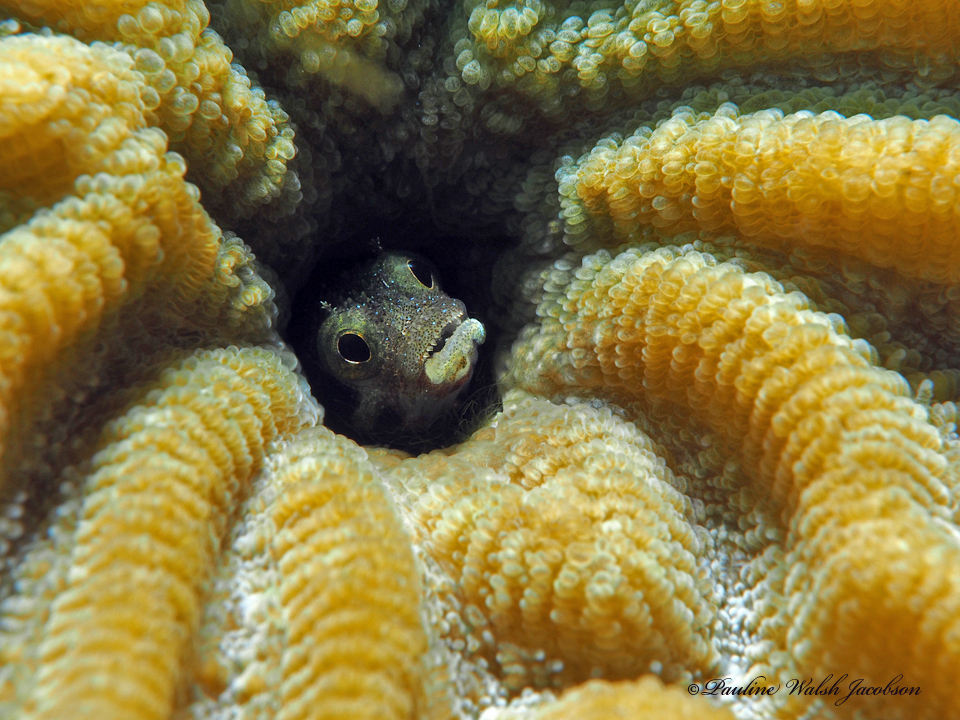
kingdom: Animalia
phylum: Chordata
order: Perciformes
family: Chaenopsidae
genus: Acanthemblemaria
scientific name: Acanthemblemaria spinosa
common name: Spinyhead blenny
